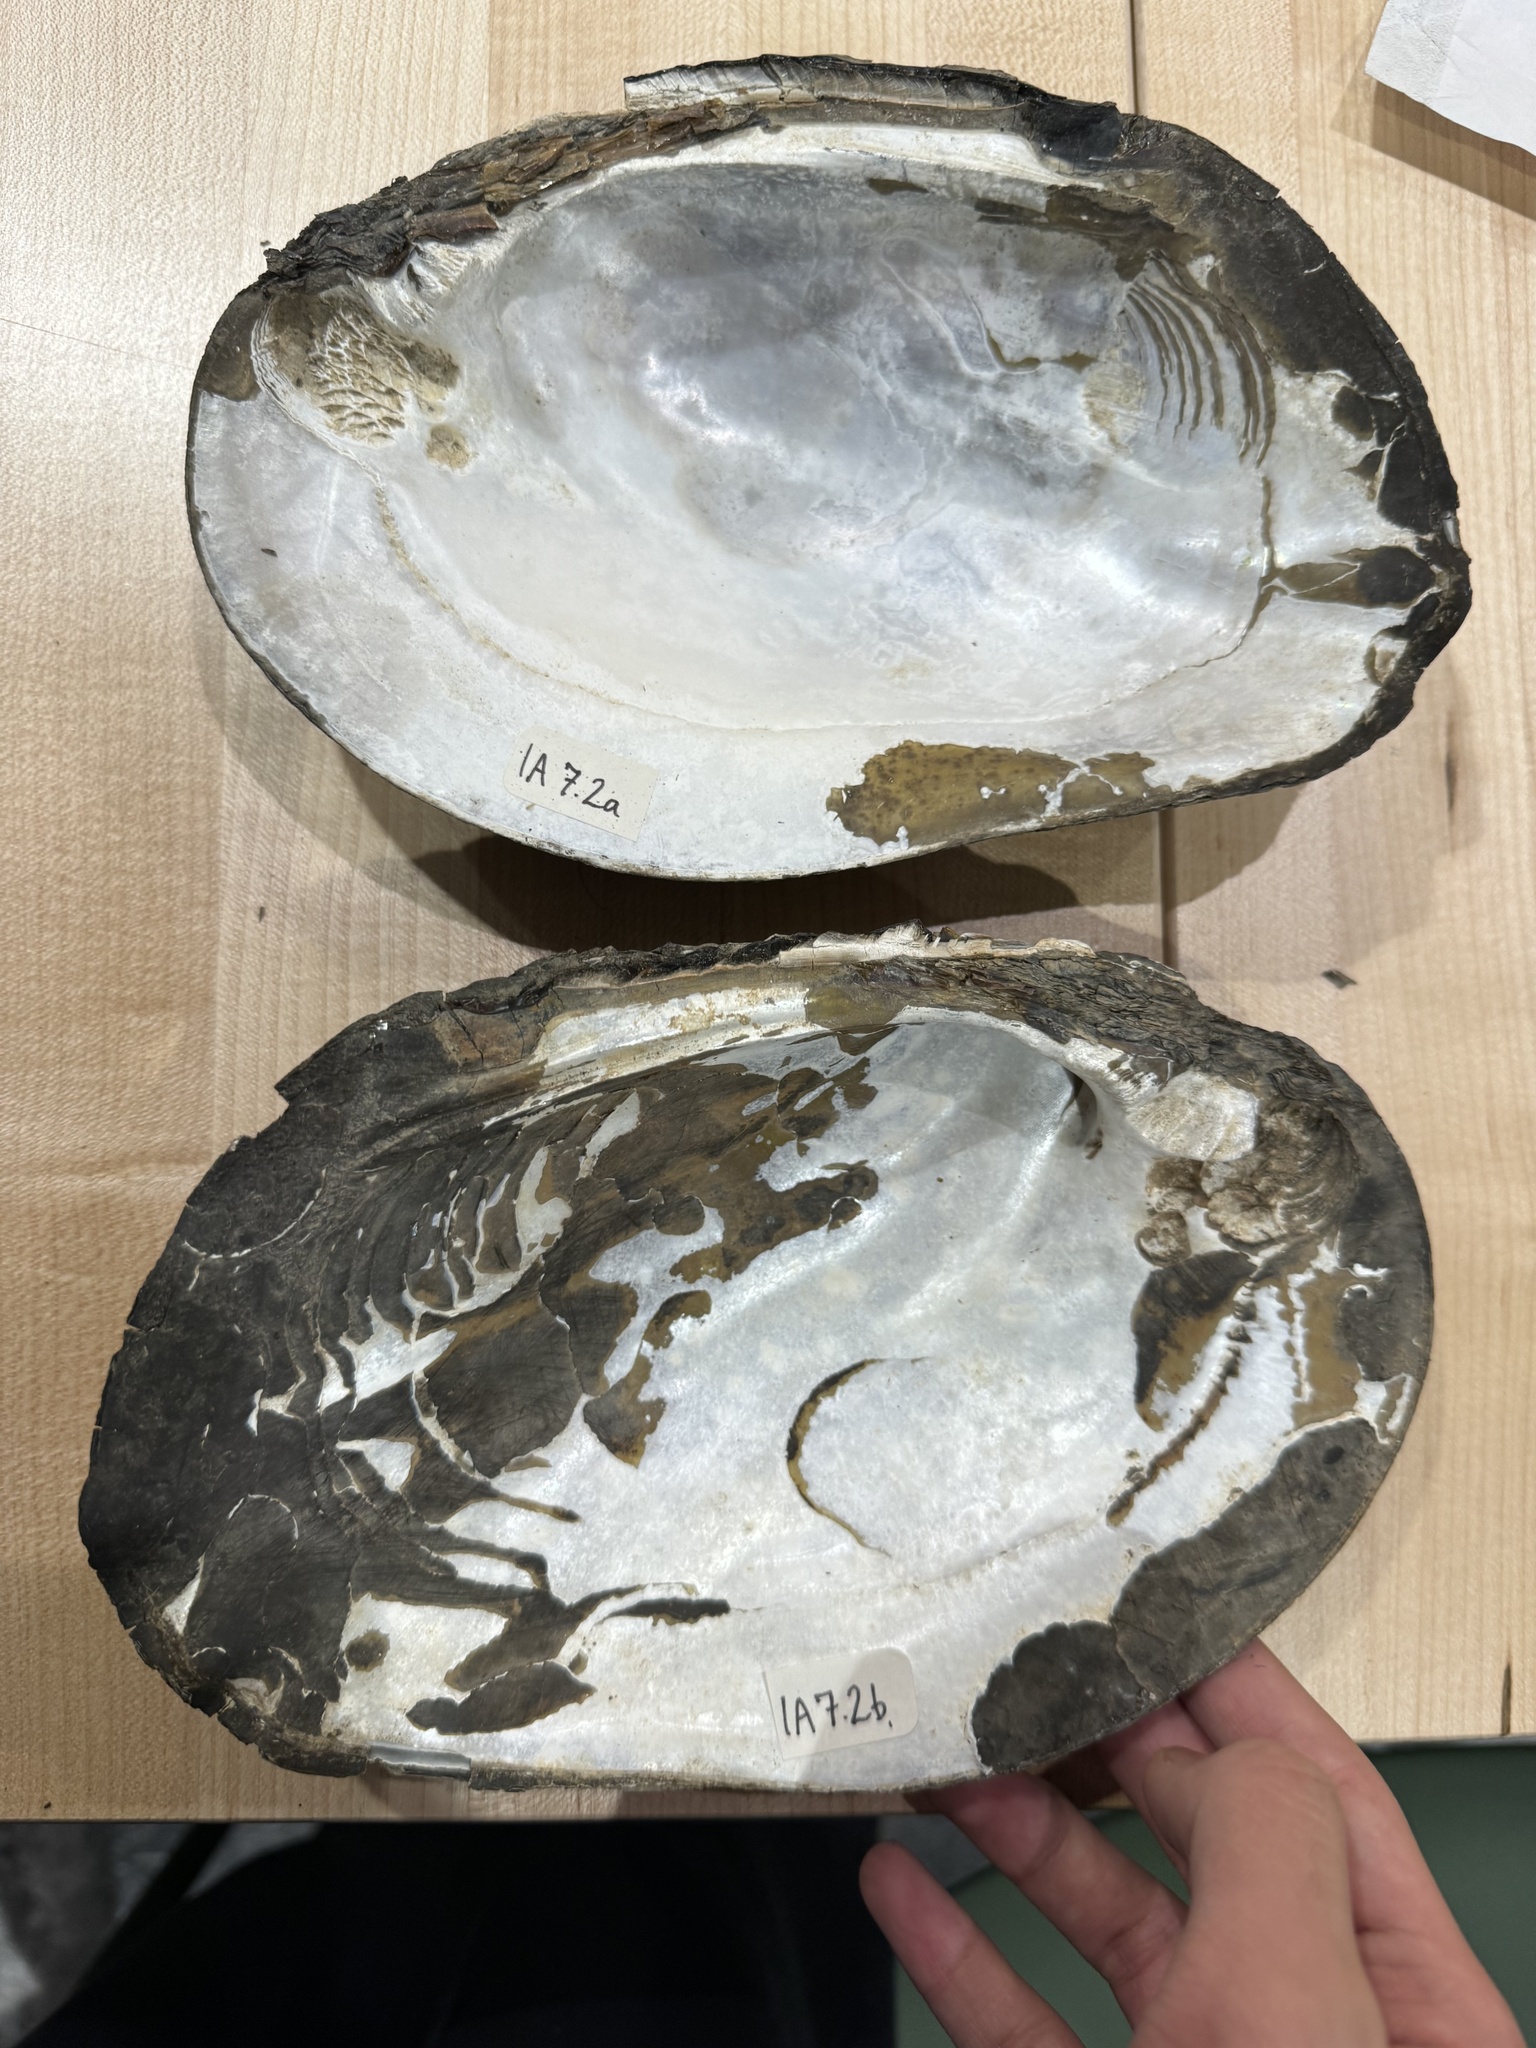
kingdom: Animalia
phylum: Mollusca
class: Bivalvia
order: Unionida
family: Unionidae
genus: Megalonaias
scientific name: Megalonaias nervosa
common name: Washboard
